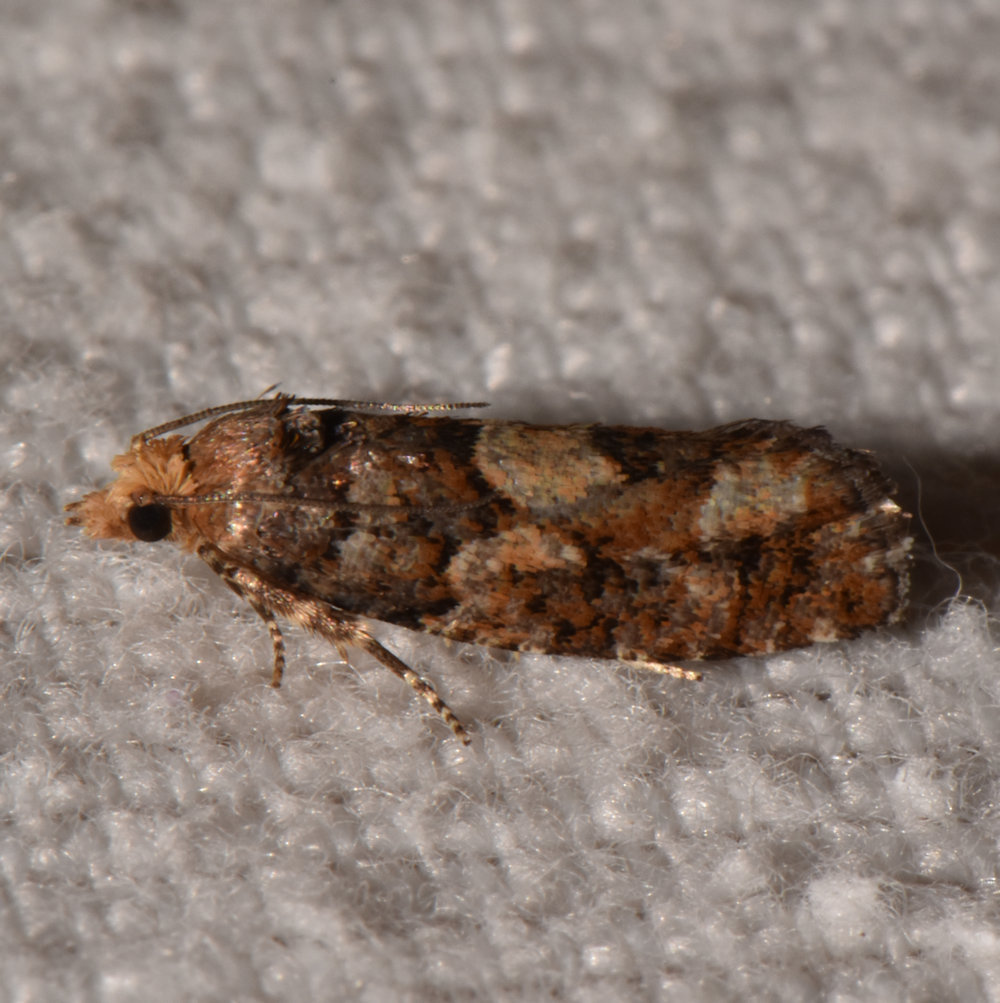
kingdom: Animalia
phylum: Arthropoda
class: Insecta
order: Lepidoptera
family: Tortricidae
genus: Eucopina
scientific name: Eucopina tocullionana
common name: White pinecone borer moth
